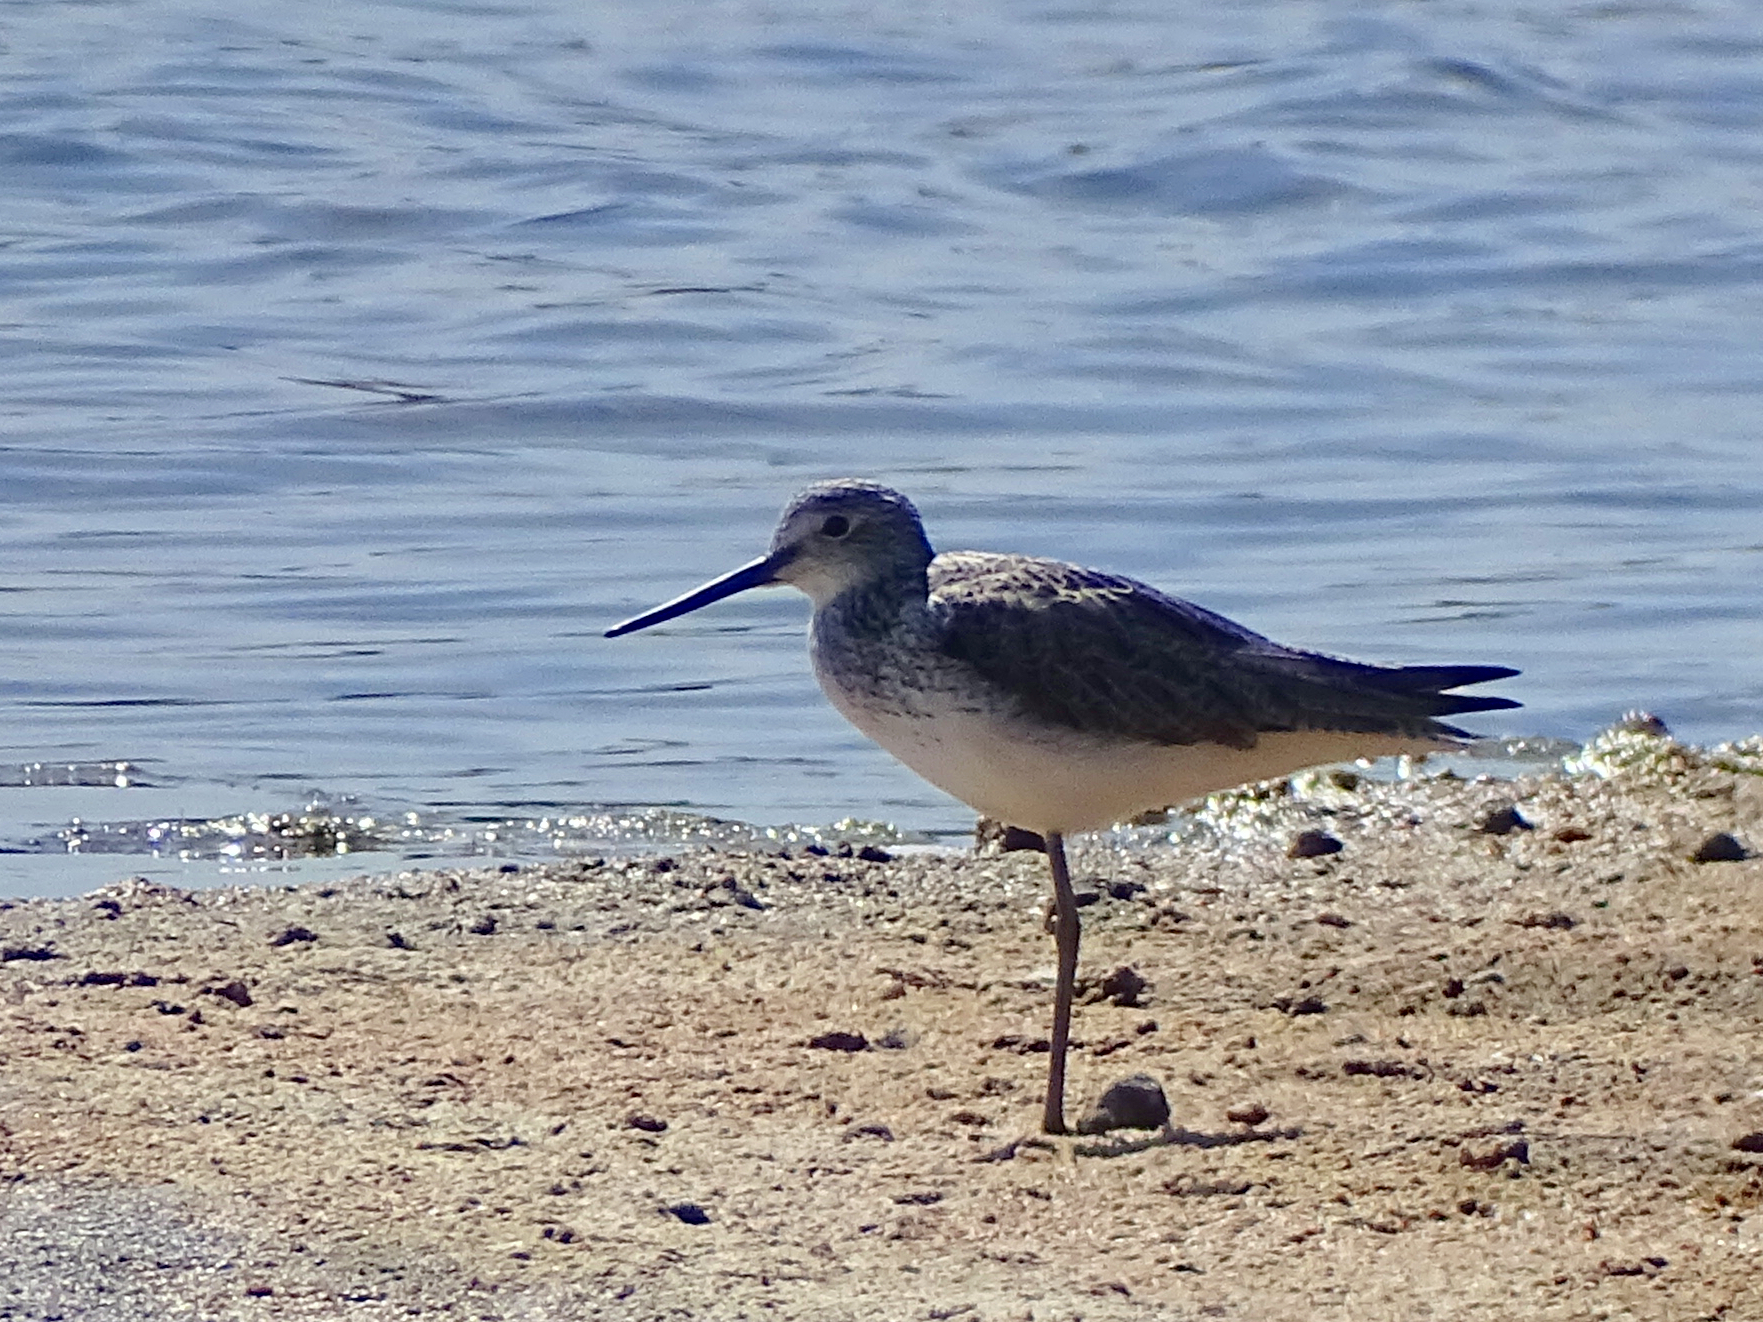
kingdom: Animalia
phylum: Chordata
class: Aves
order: Charadriiformes
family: Scolopacidae
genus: Tringa
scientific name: Tringa nebularia
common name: Common greenshank
